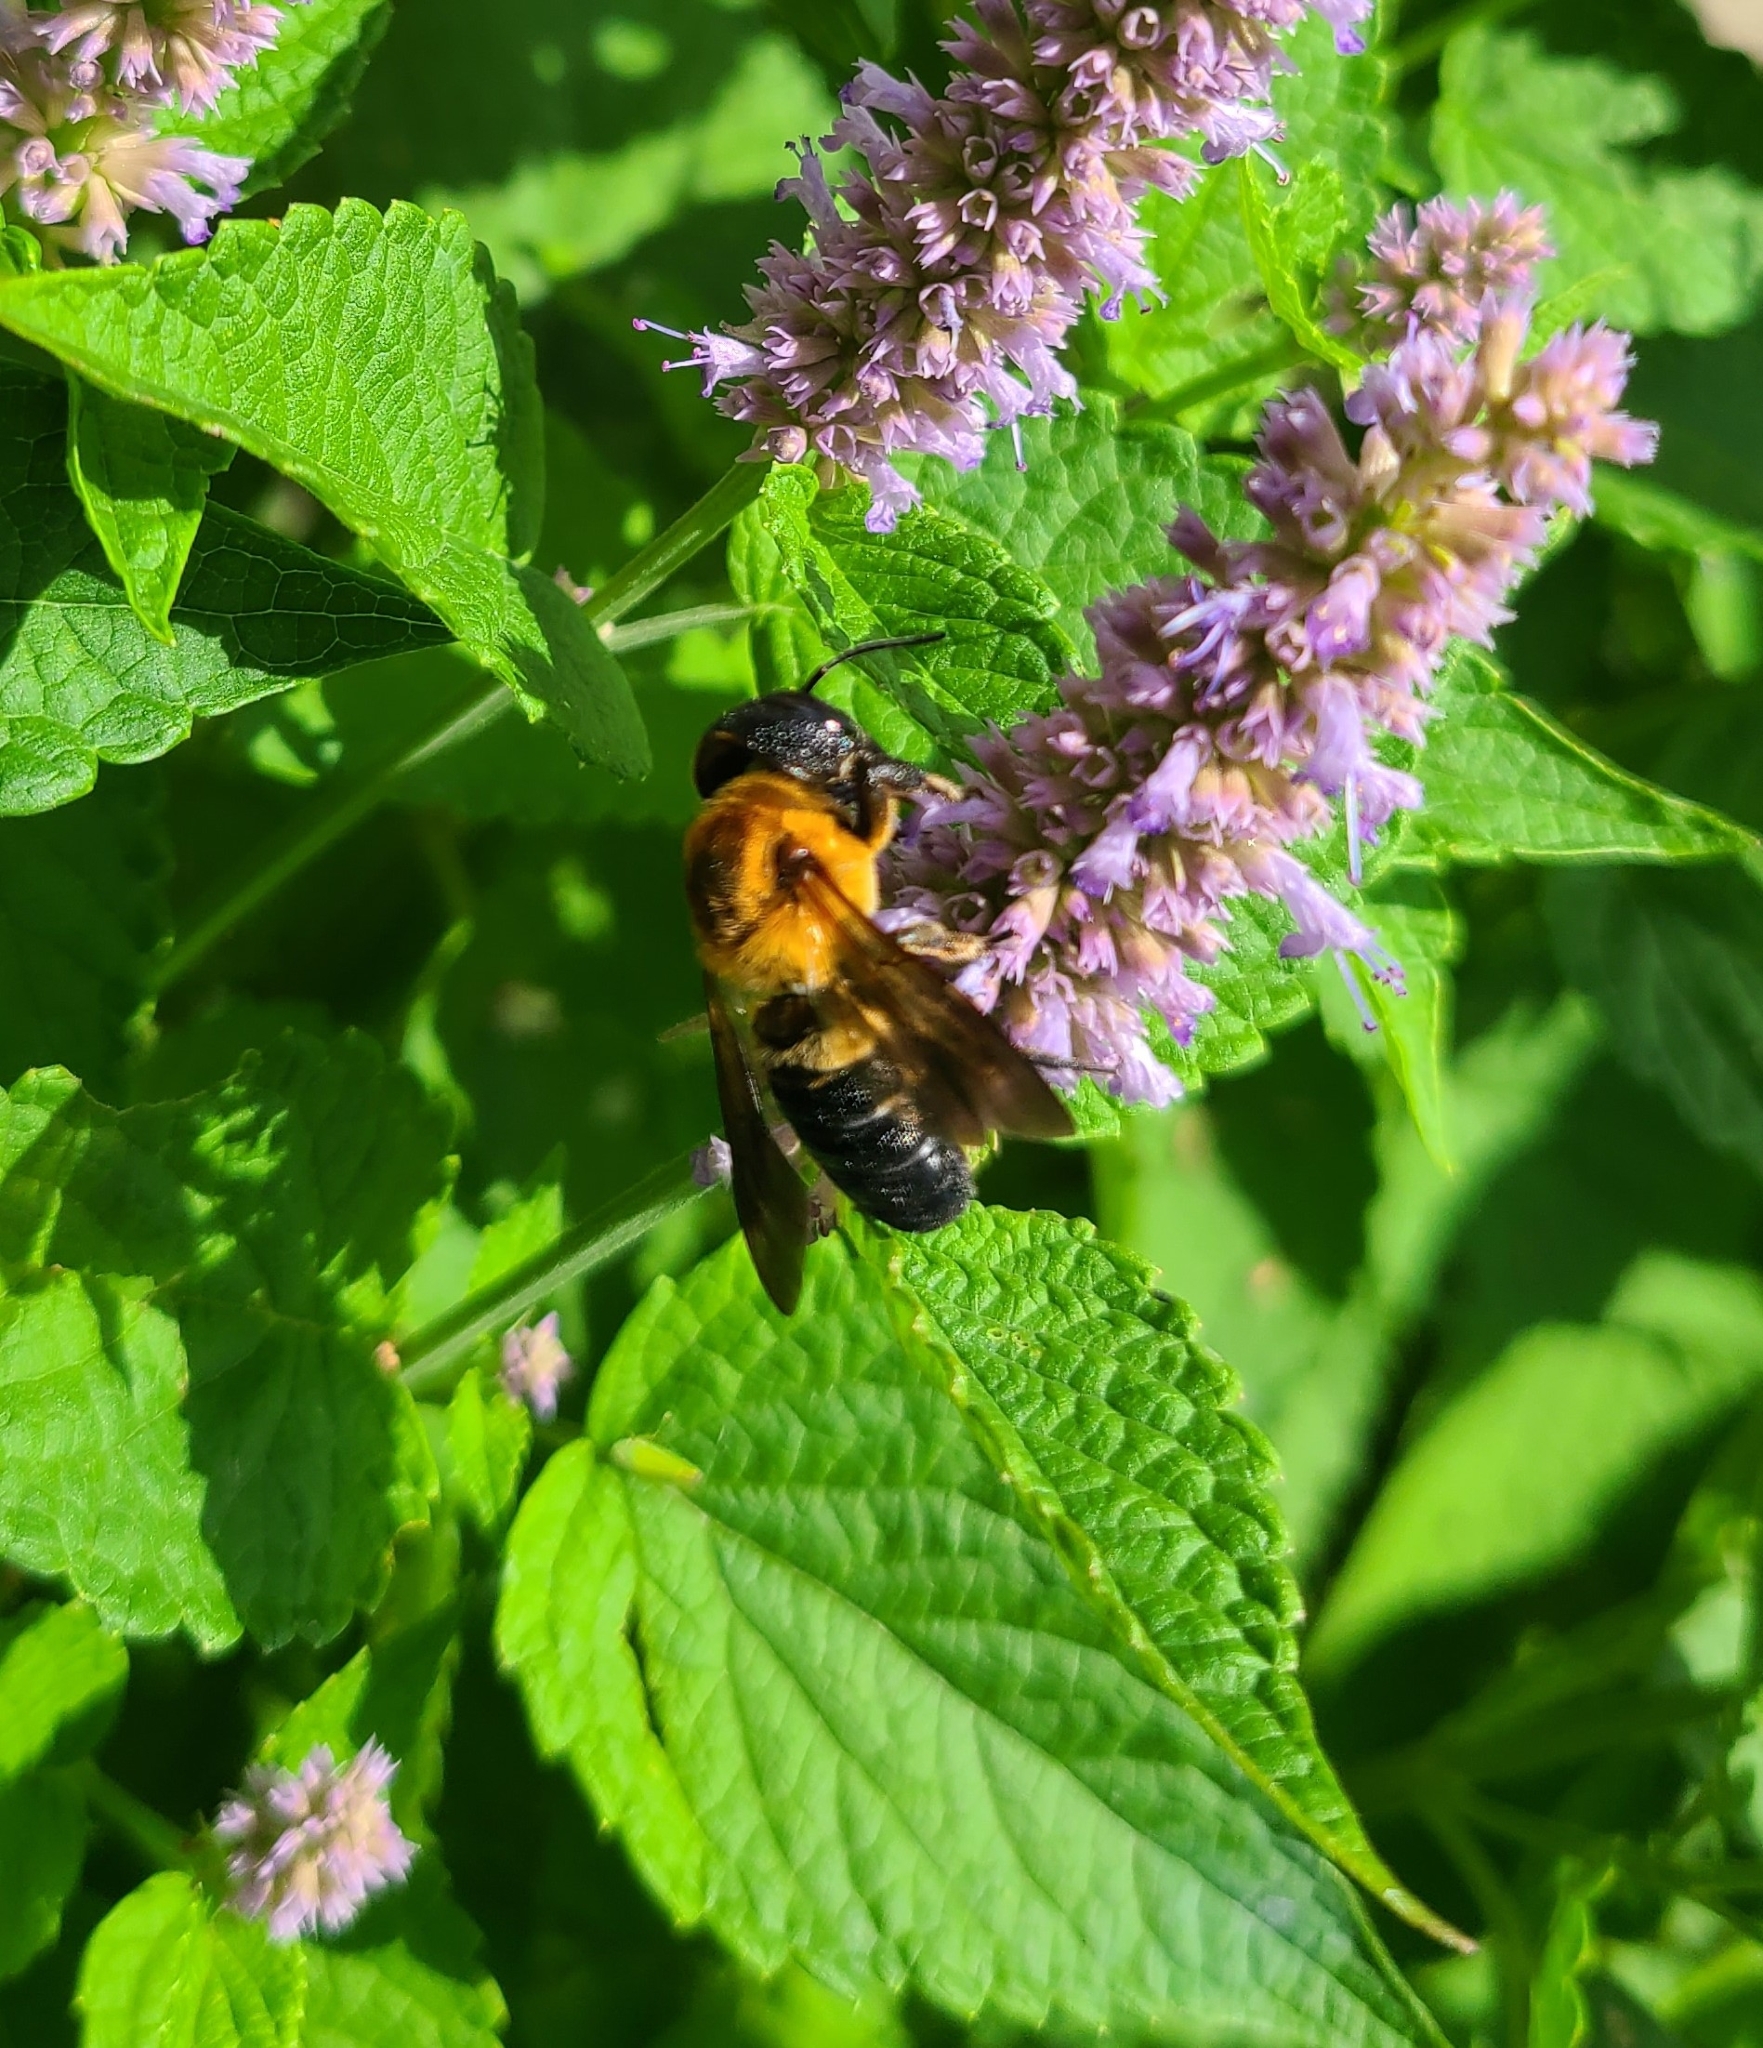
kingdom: Animalia
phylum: Arthropoda
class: Insecta
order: Hymenoptera
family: Megachilidae
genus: Megachile
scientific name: Megachile sculpturalis
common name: Sculptured resin bee
